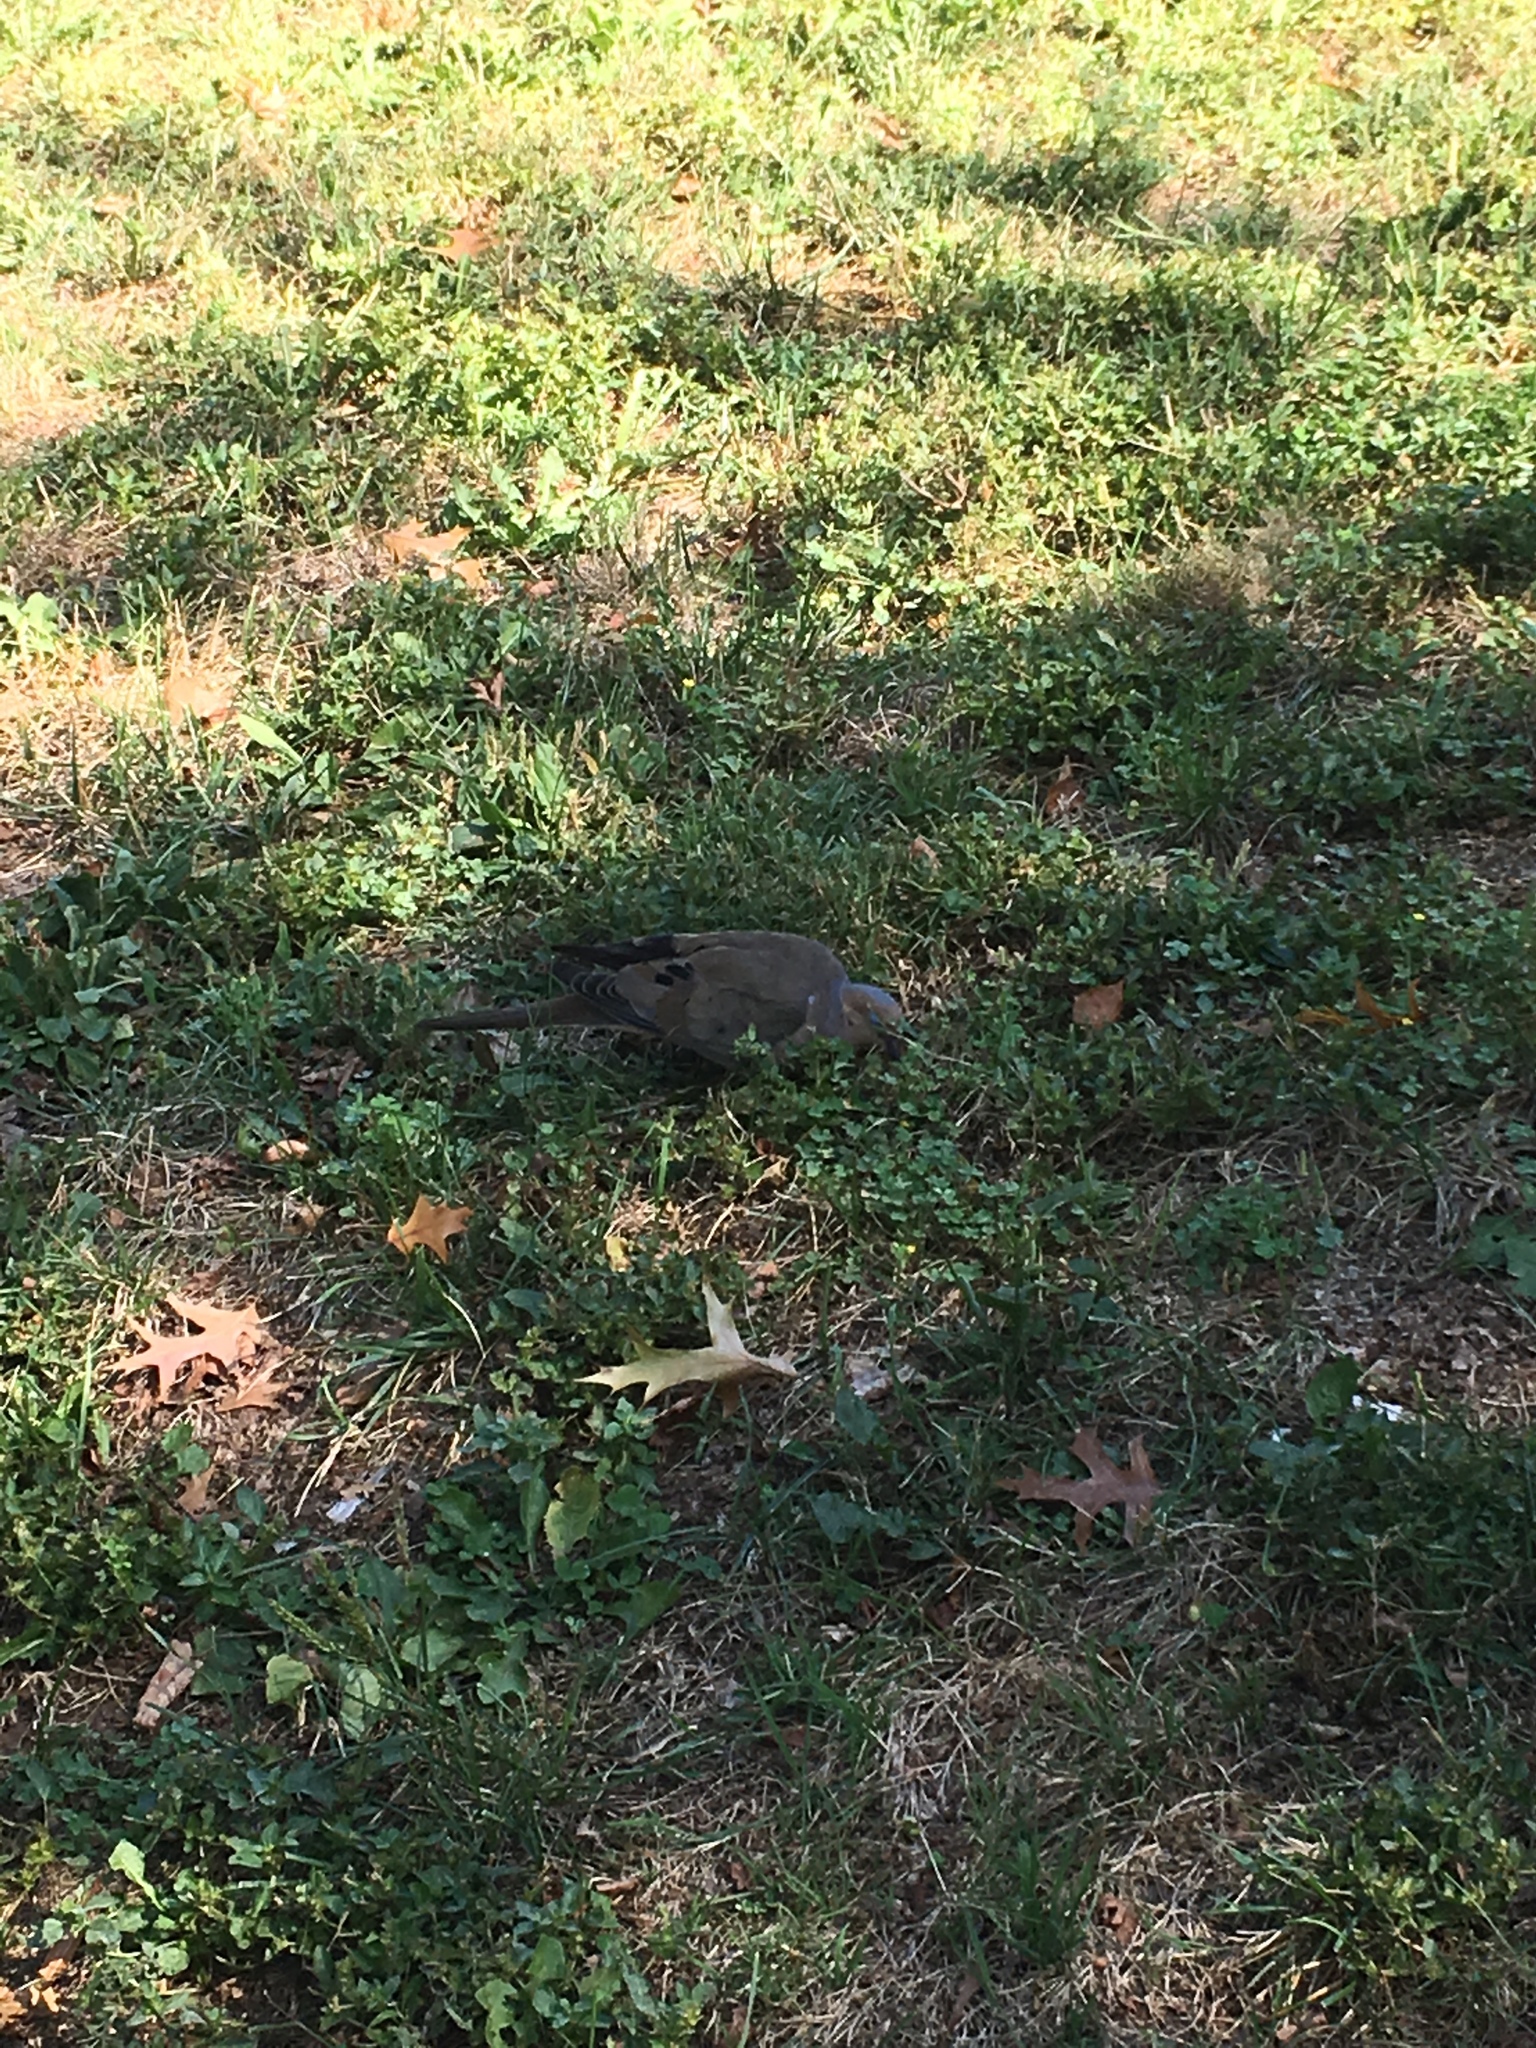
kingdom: Animalia
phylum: Chordata
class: Aves
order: Columbiformes
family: Columbidae
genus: Zenaida
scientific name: Zenaida macroura
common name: Mourning dove
